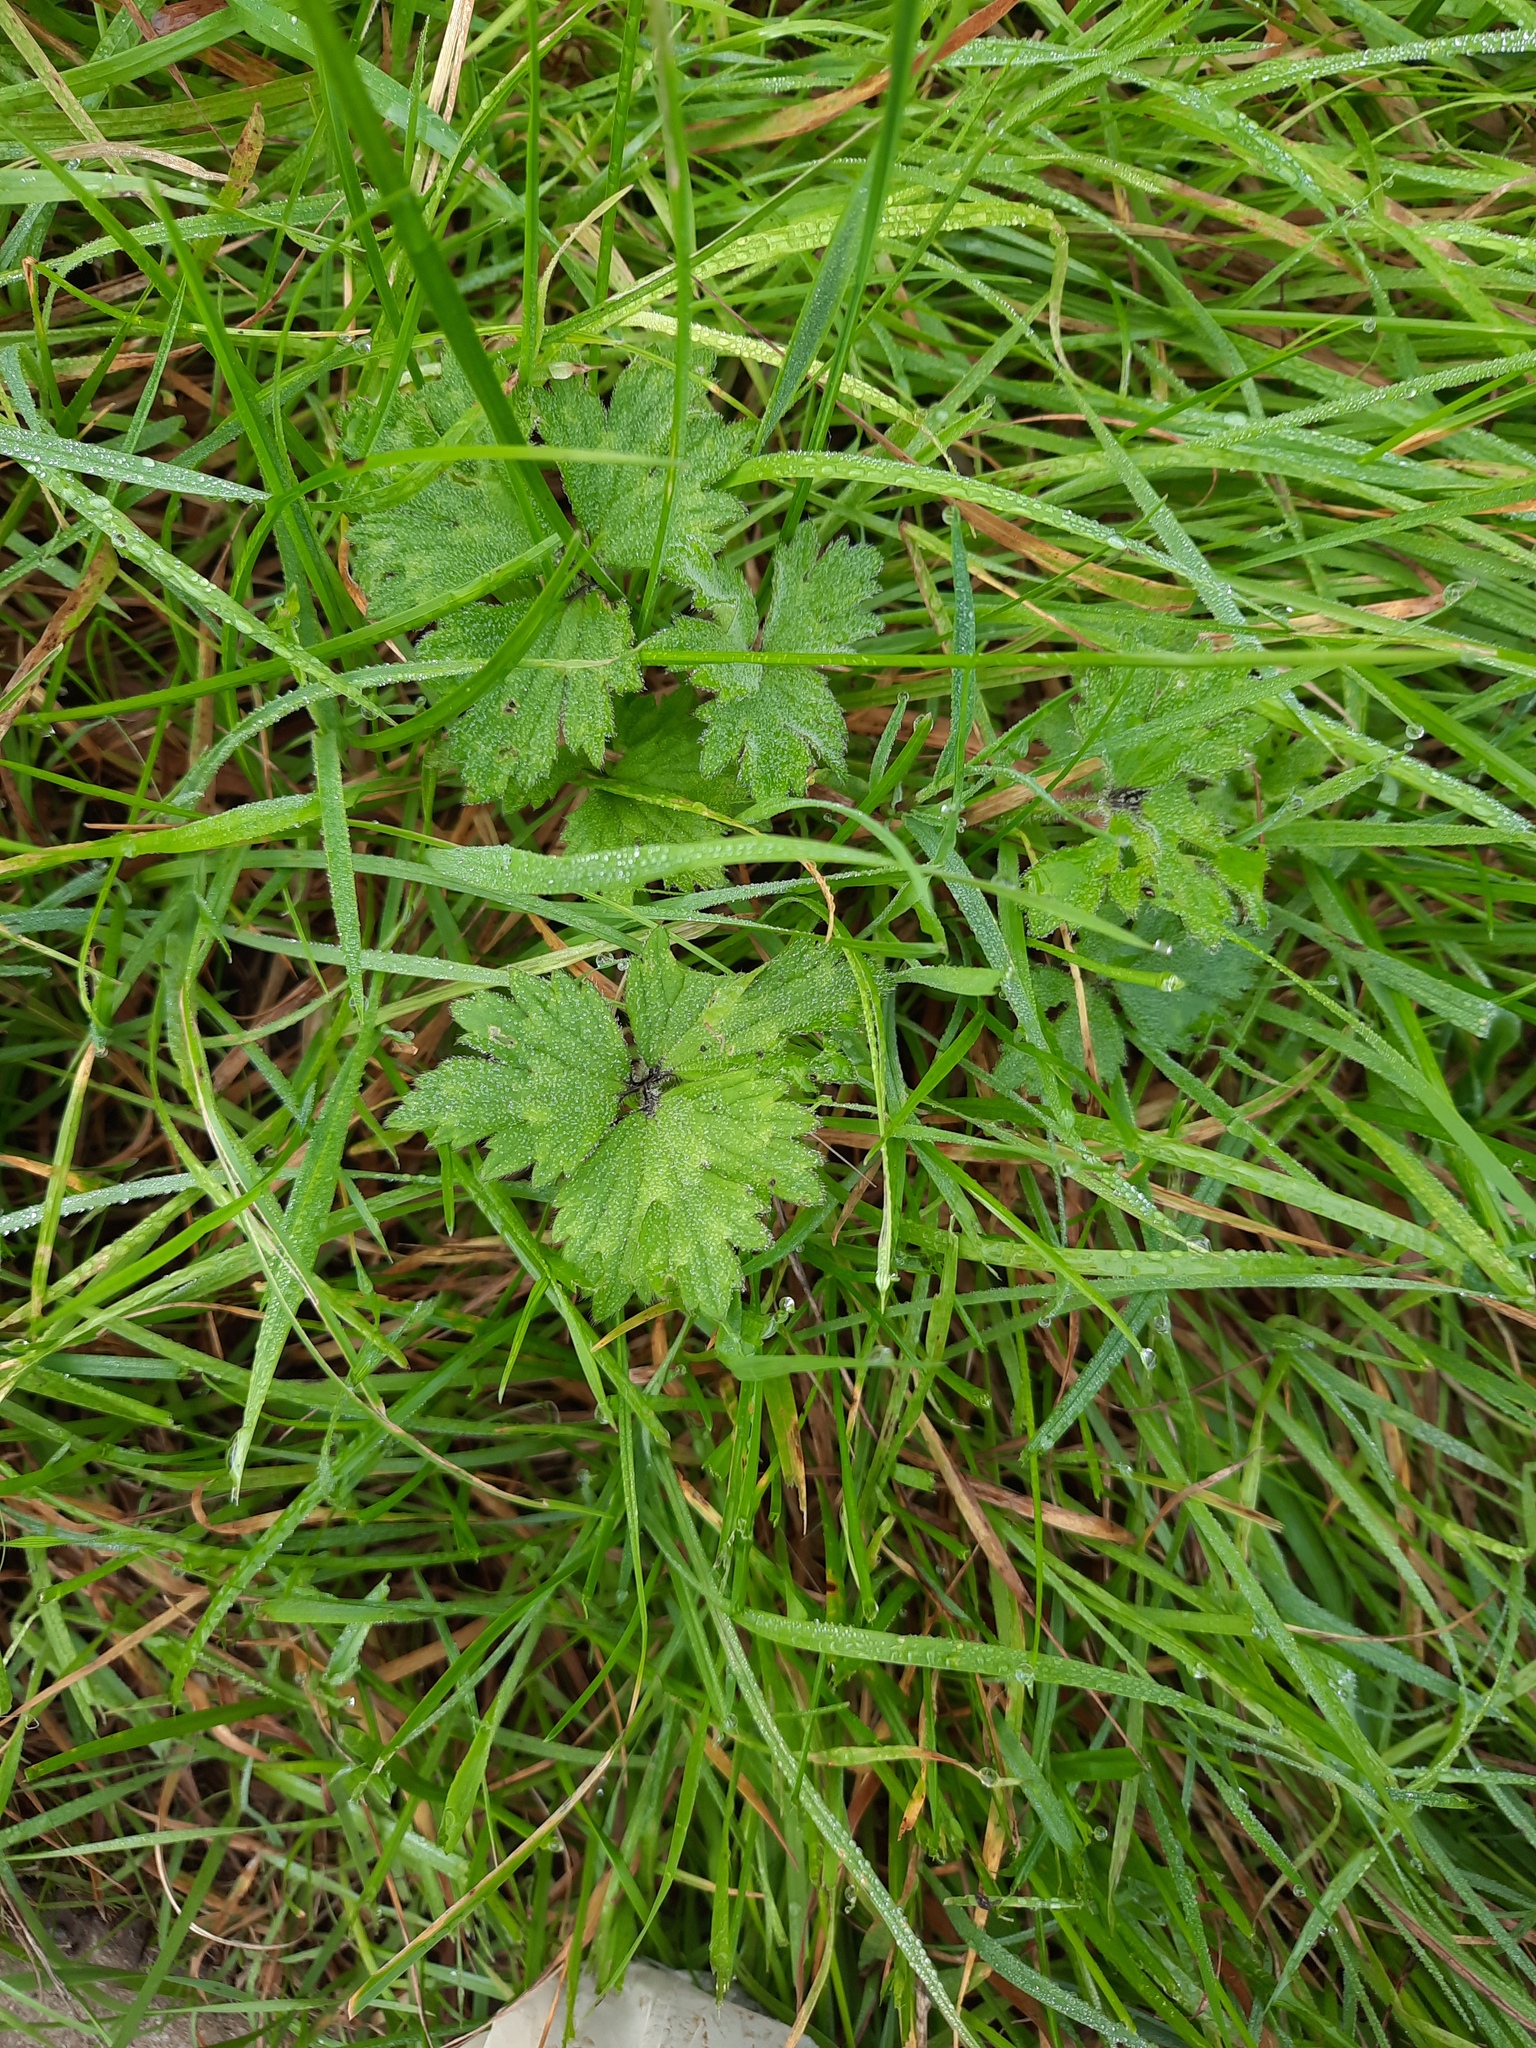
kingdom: Plantae
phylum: Tracheophyta
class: Magnoliopsida
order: Ranunculales
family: Ranunculaceae
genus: Ranunculus
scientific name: Ranunculus repens
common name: Creeping buttercup
